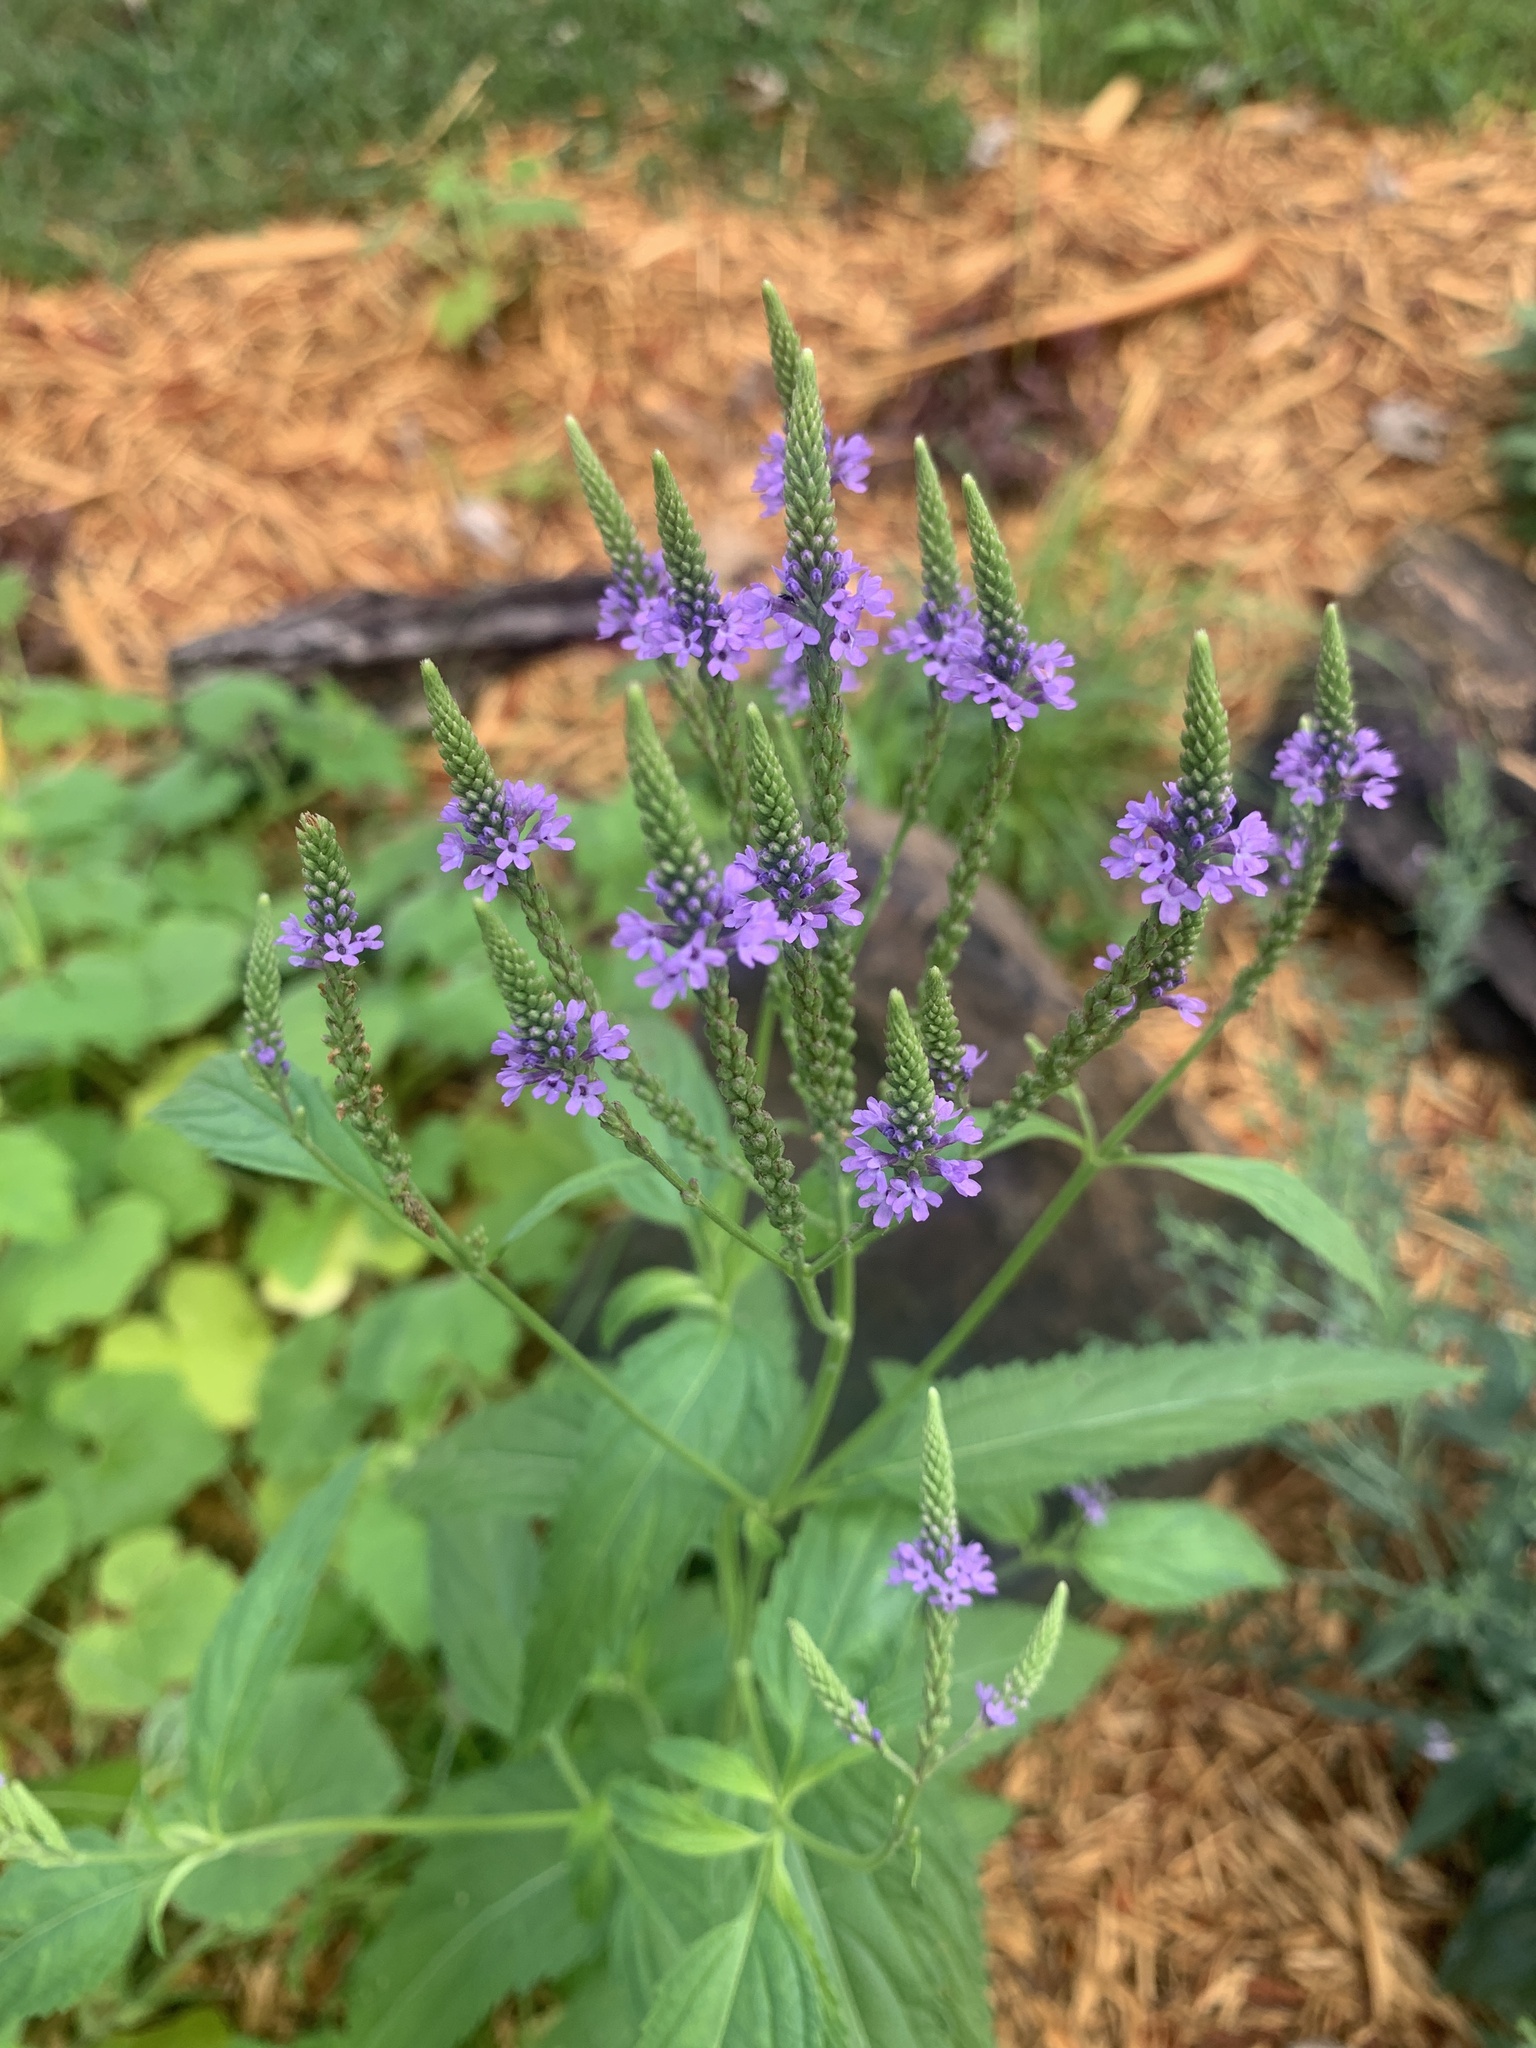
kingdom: Plantae
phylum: Tracheophyta
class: Magnoliopsida
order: Lamiales
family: Verbenaceae
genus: Verbena
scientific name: Verbena hastata
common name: American blue vervain
